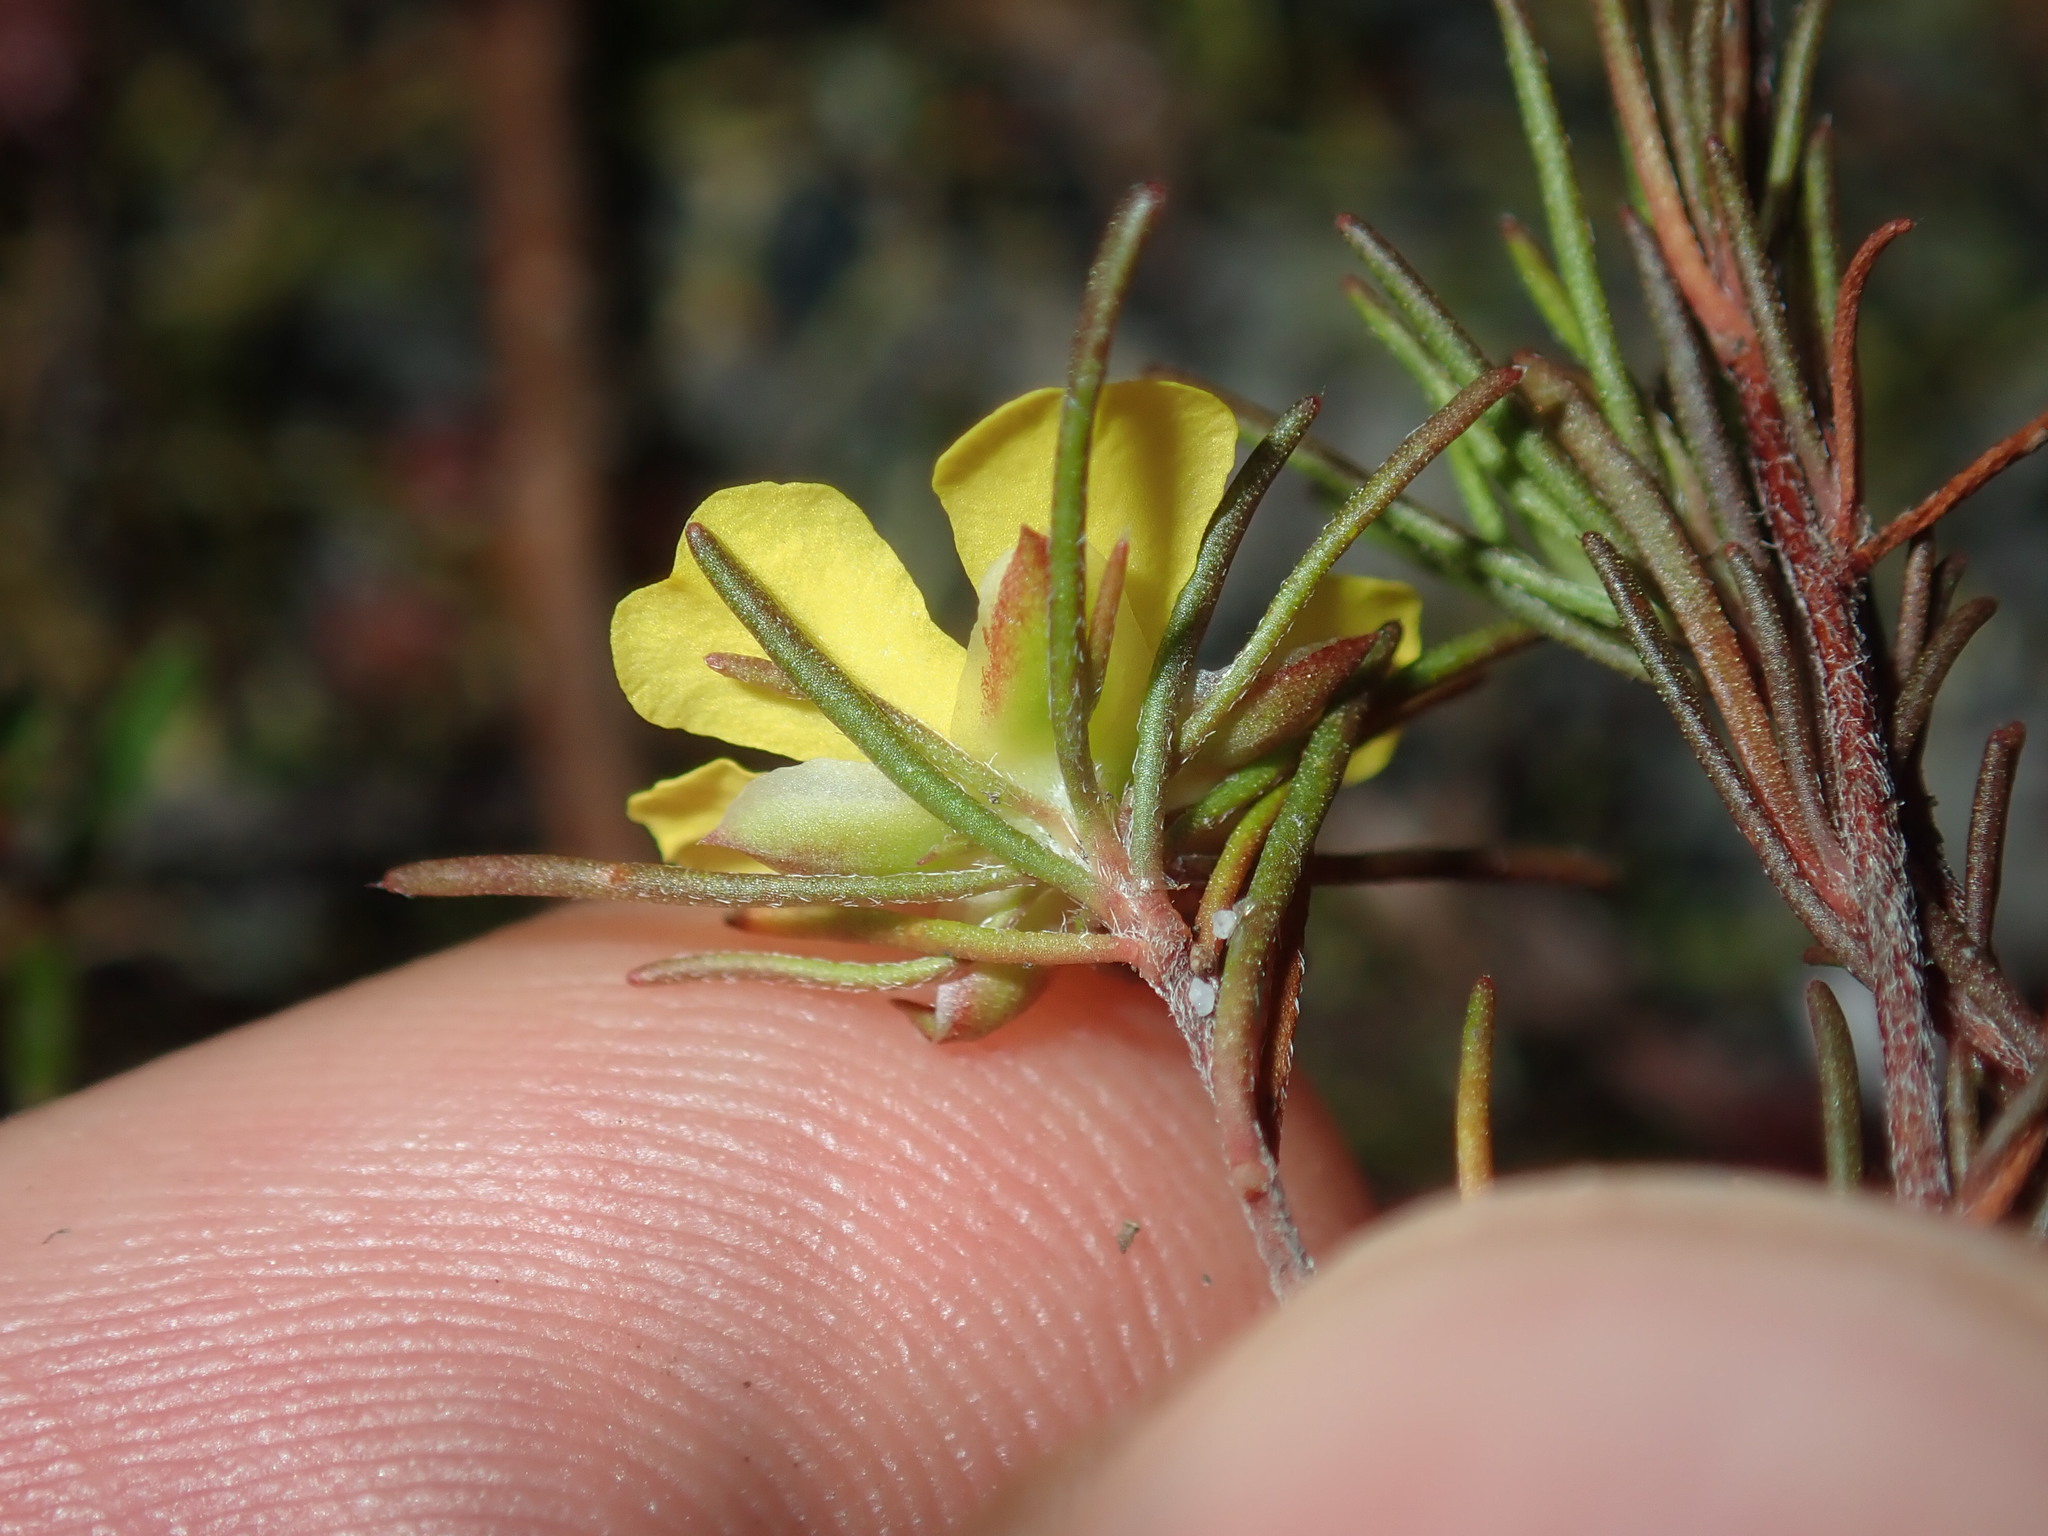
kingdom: Plantae
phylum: Tracheophyta
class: Magnoliopsida
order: Dilleniales
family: Dilleniaceae
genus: Hibbertia
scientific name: Hibbertia fasciculata
